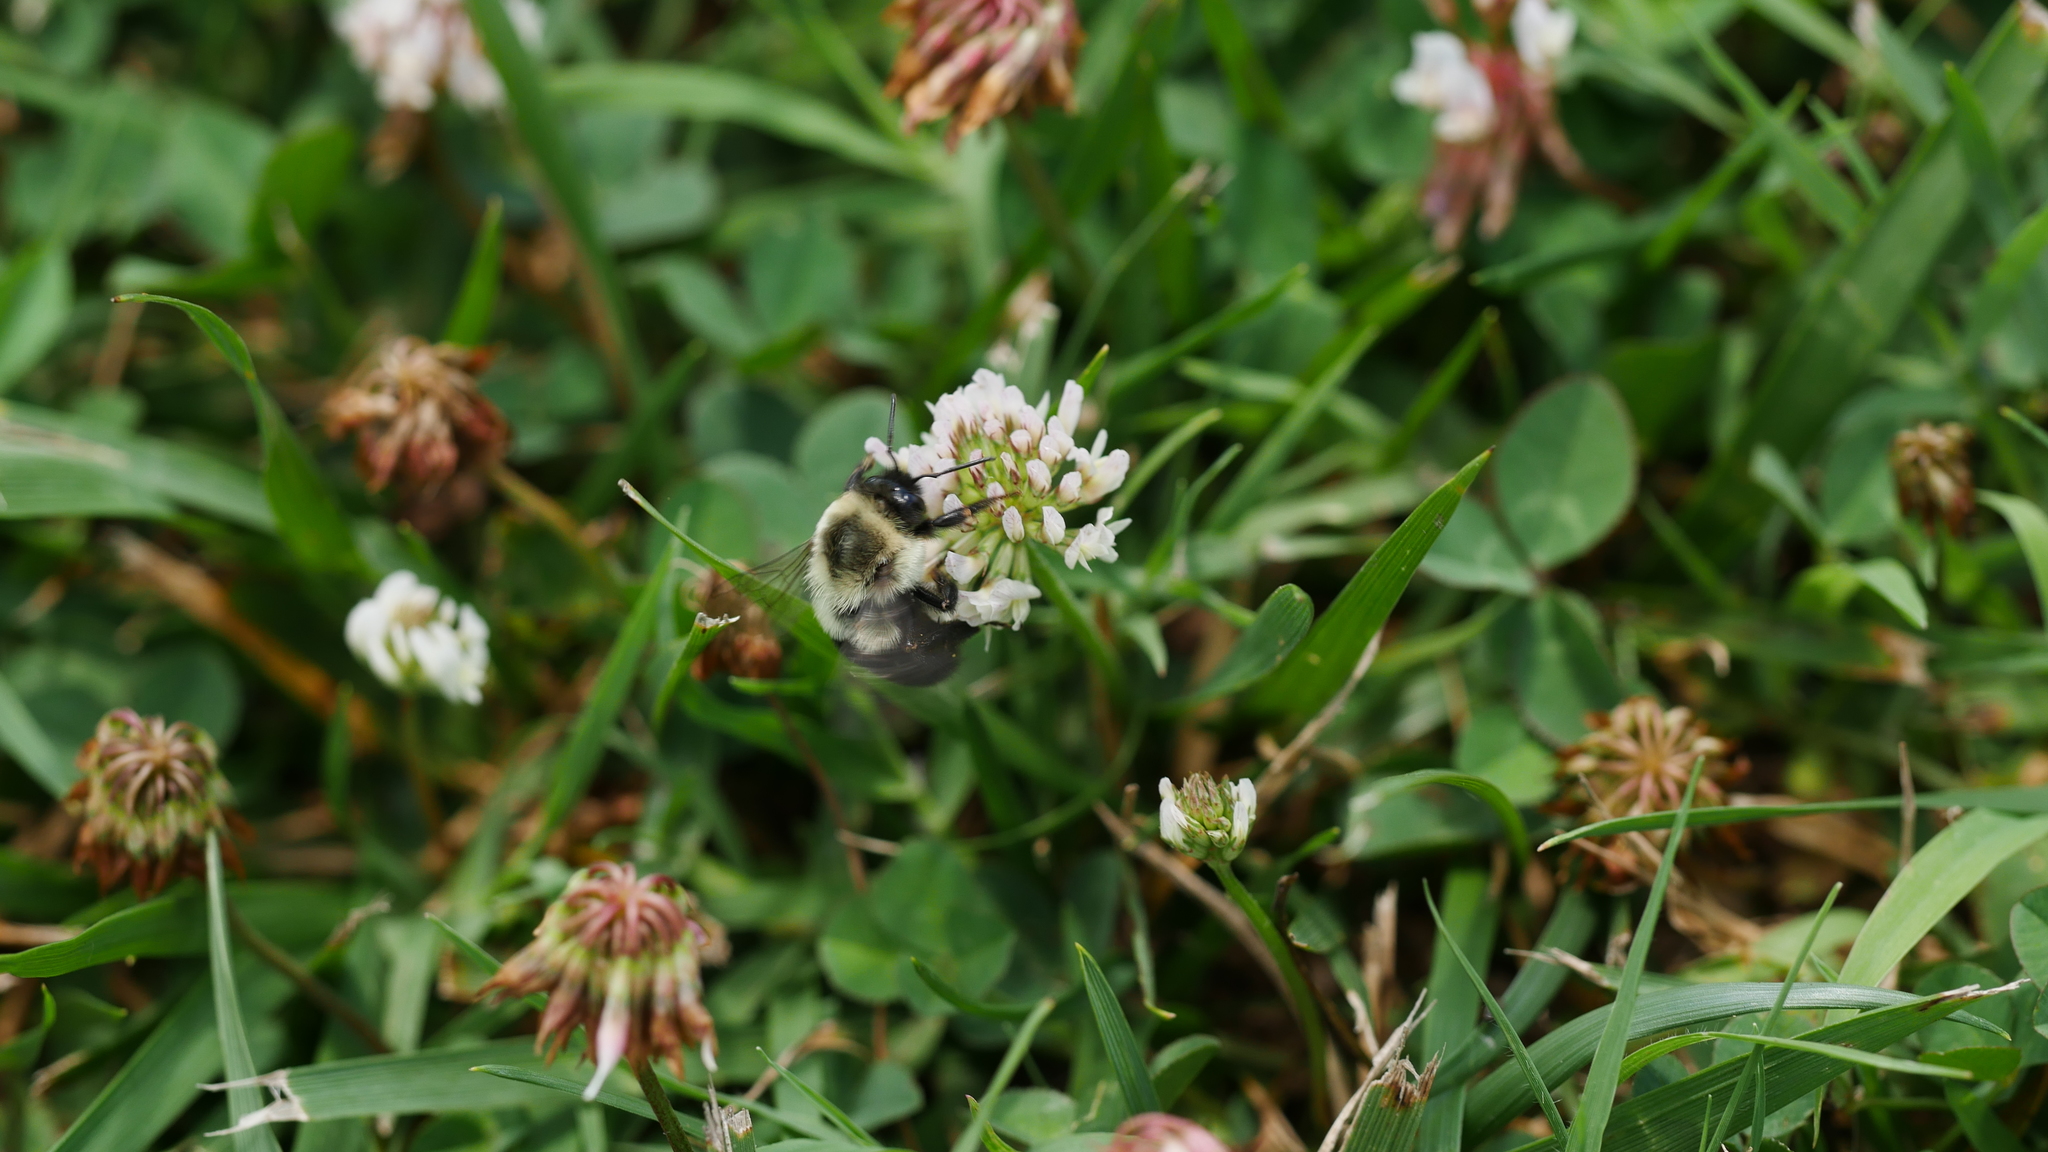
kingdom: Animalia
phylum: Arthropoda
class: Insecta
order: Hymenoptera
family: Apidae
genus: Bombus
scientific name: Bombus impatiens
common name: Common eastern bumble bee
